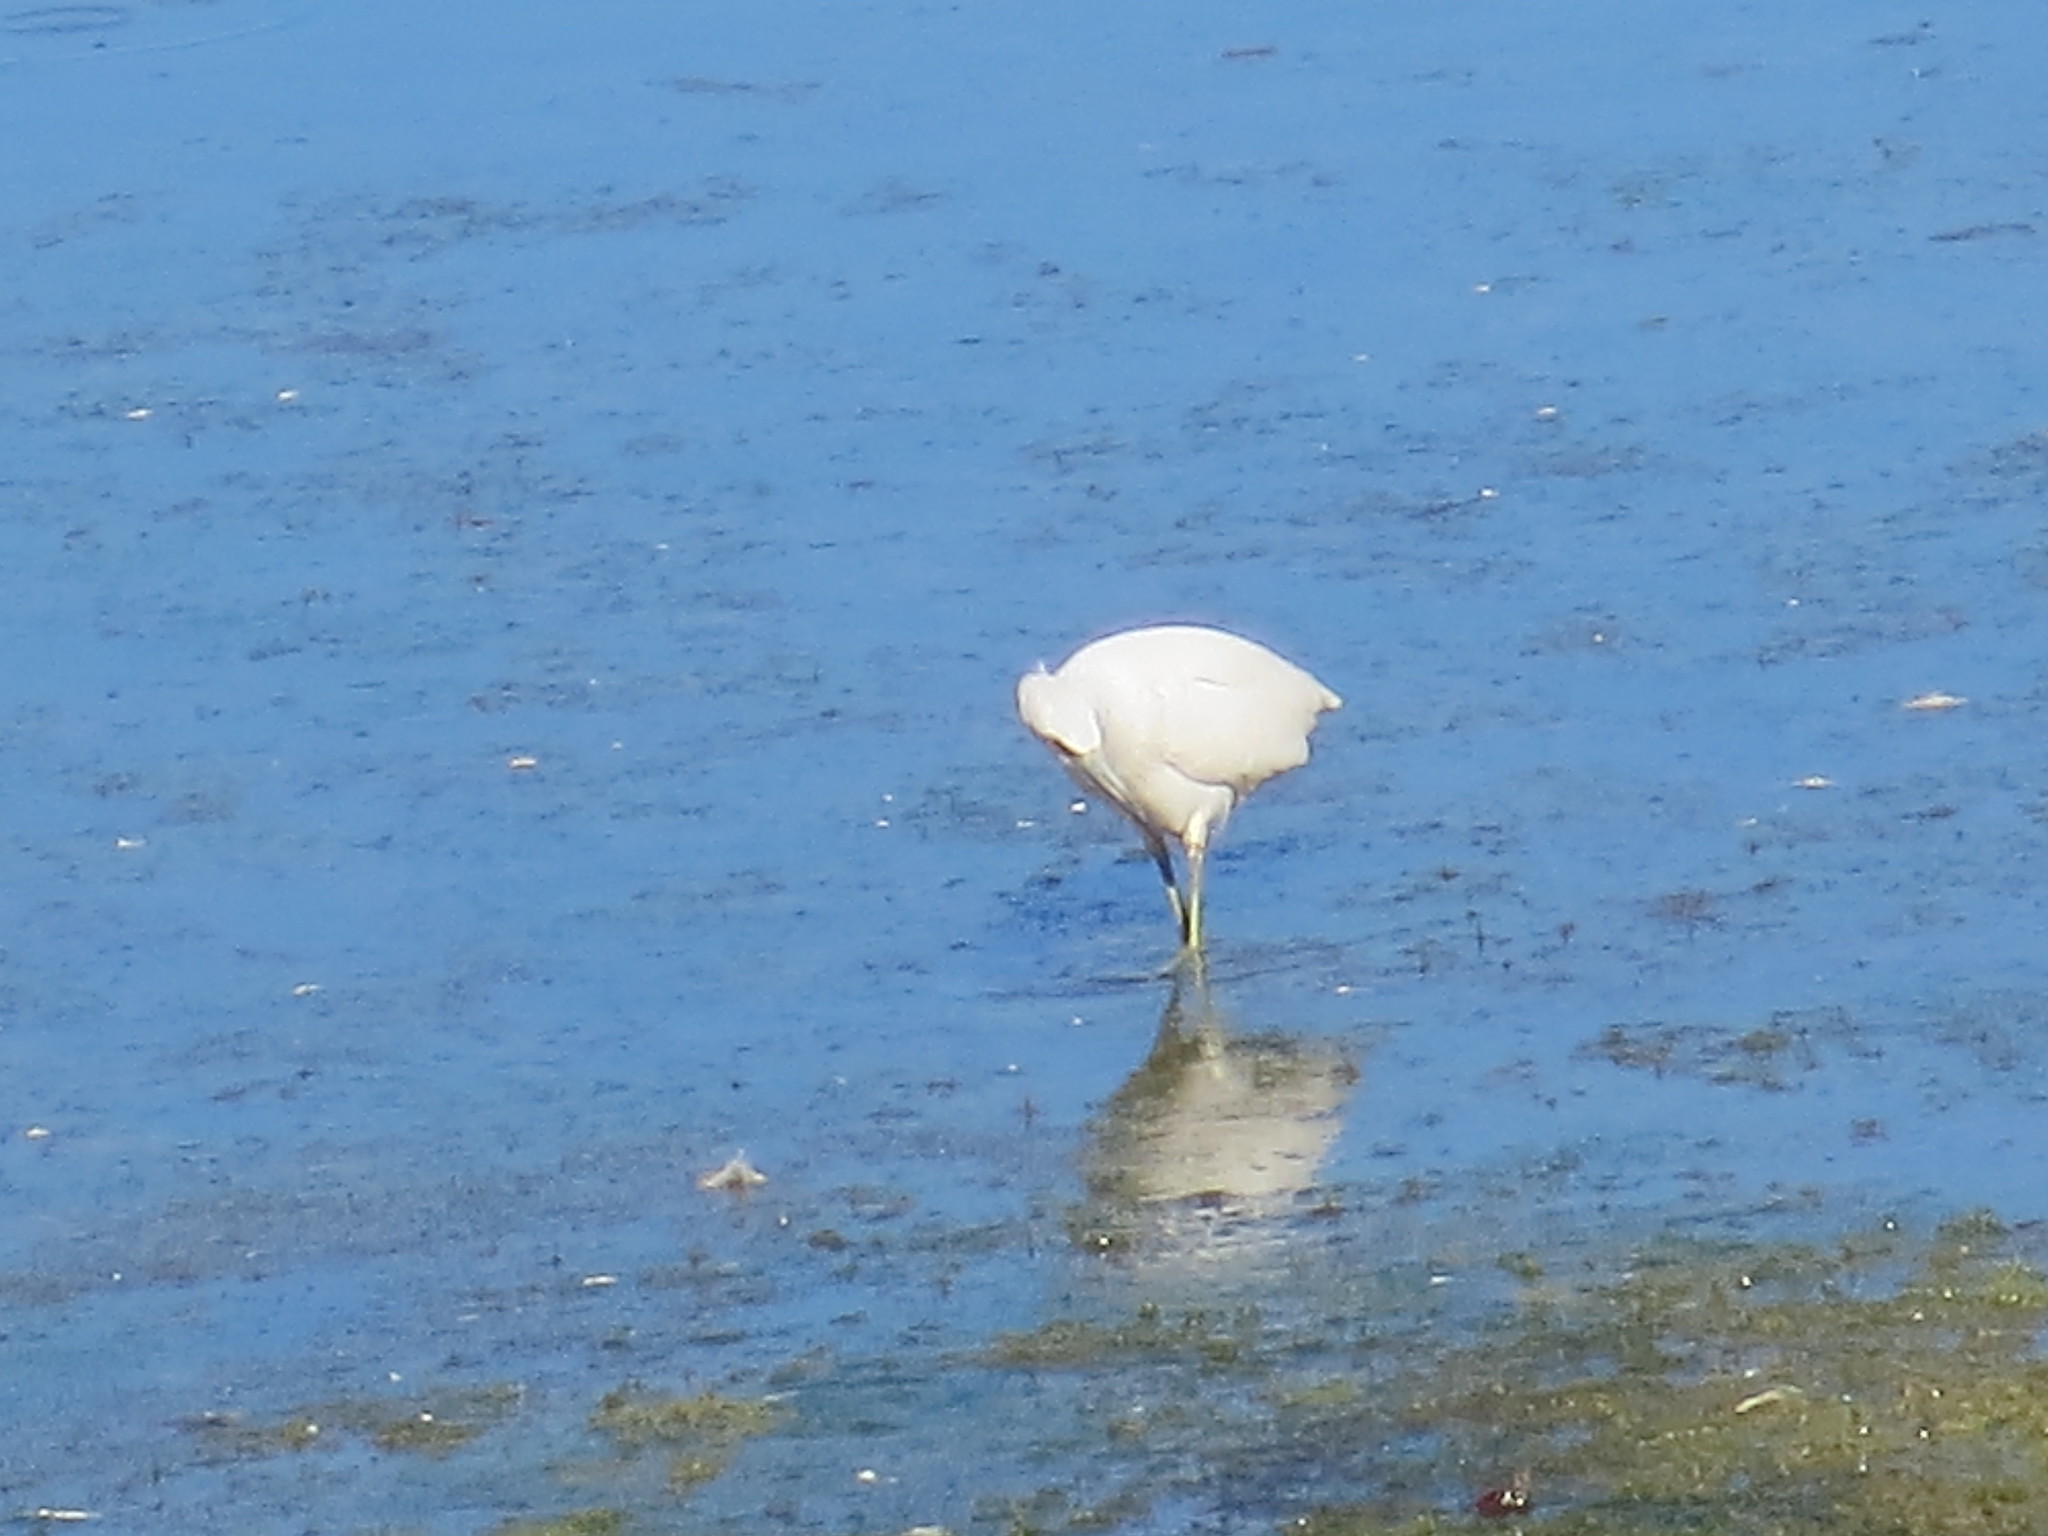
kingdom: Animalia
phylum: Chordata
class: Aves
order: Pelecaniformes
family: Ardeidae
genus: Egretta
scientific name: Egretta caerulea
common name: Little blue heron
